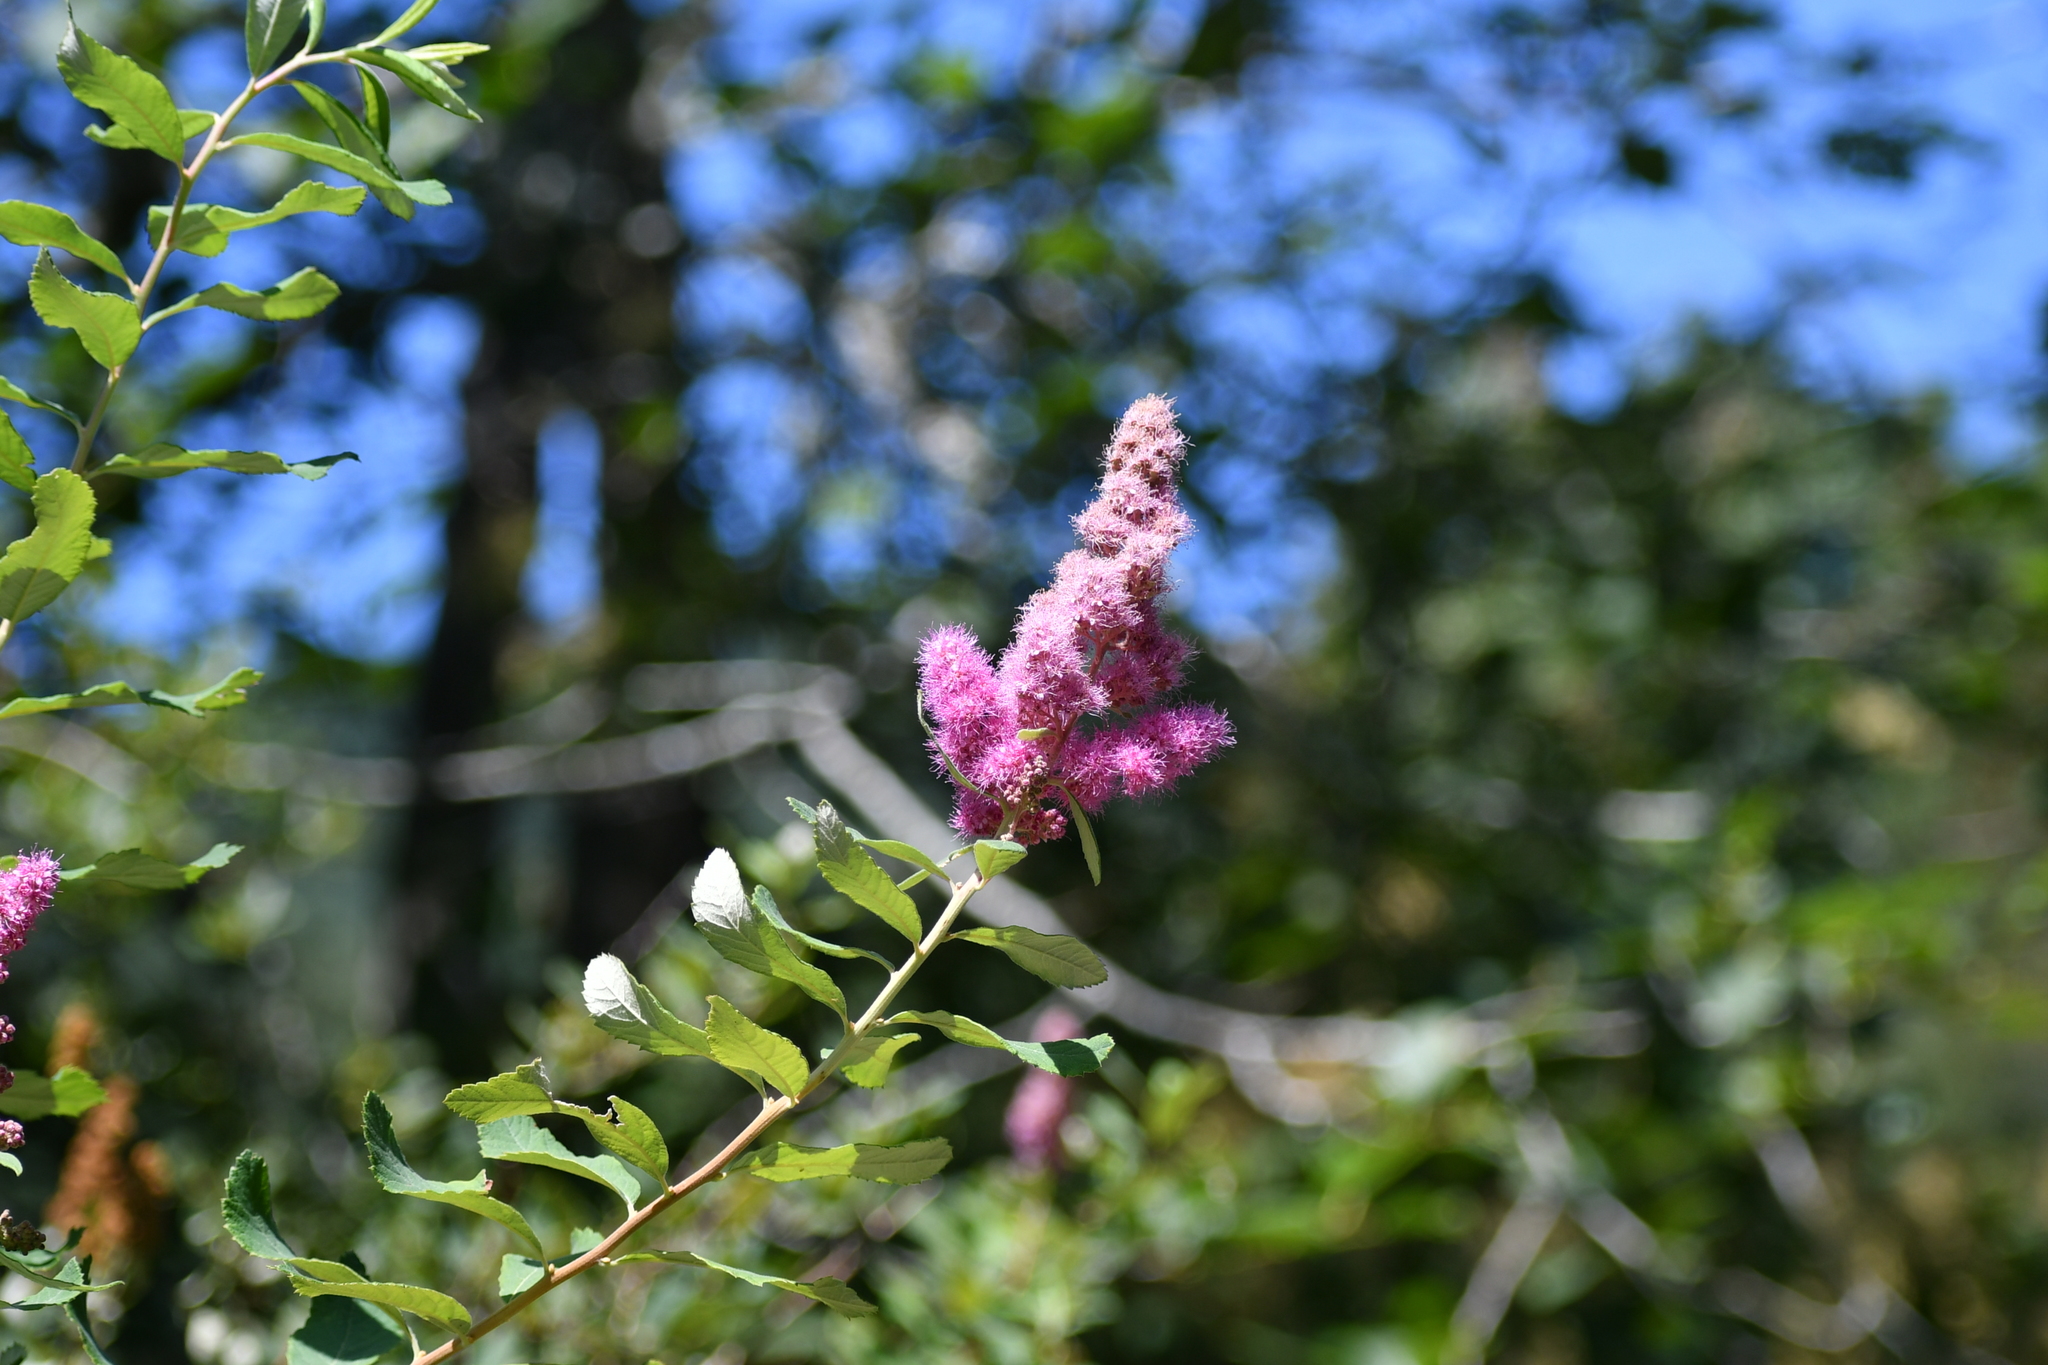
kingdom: Plantae
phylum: Tracheophyta
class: Magnoliopsida
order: Rosales
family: Rosaceae
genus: Spiraea
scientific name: Spiraea douglasii
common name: Steeplebush
